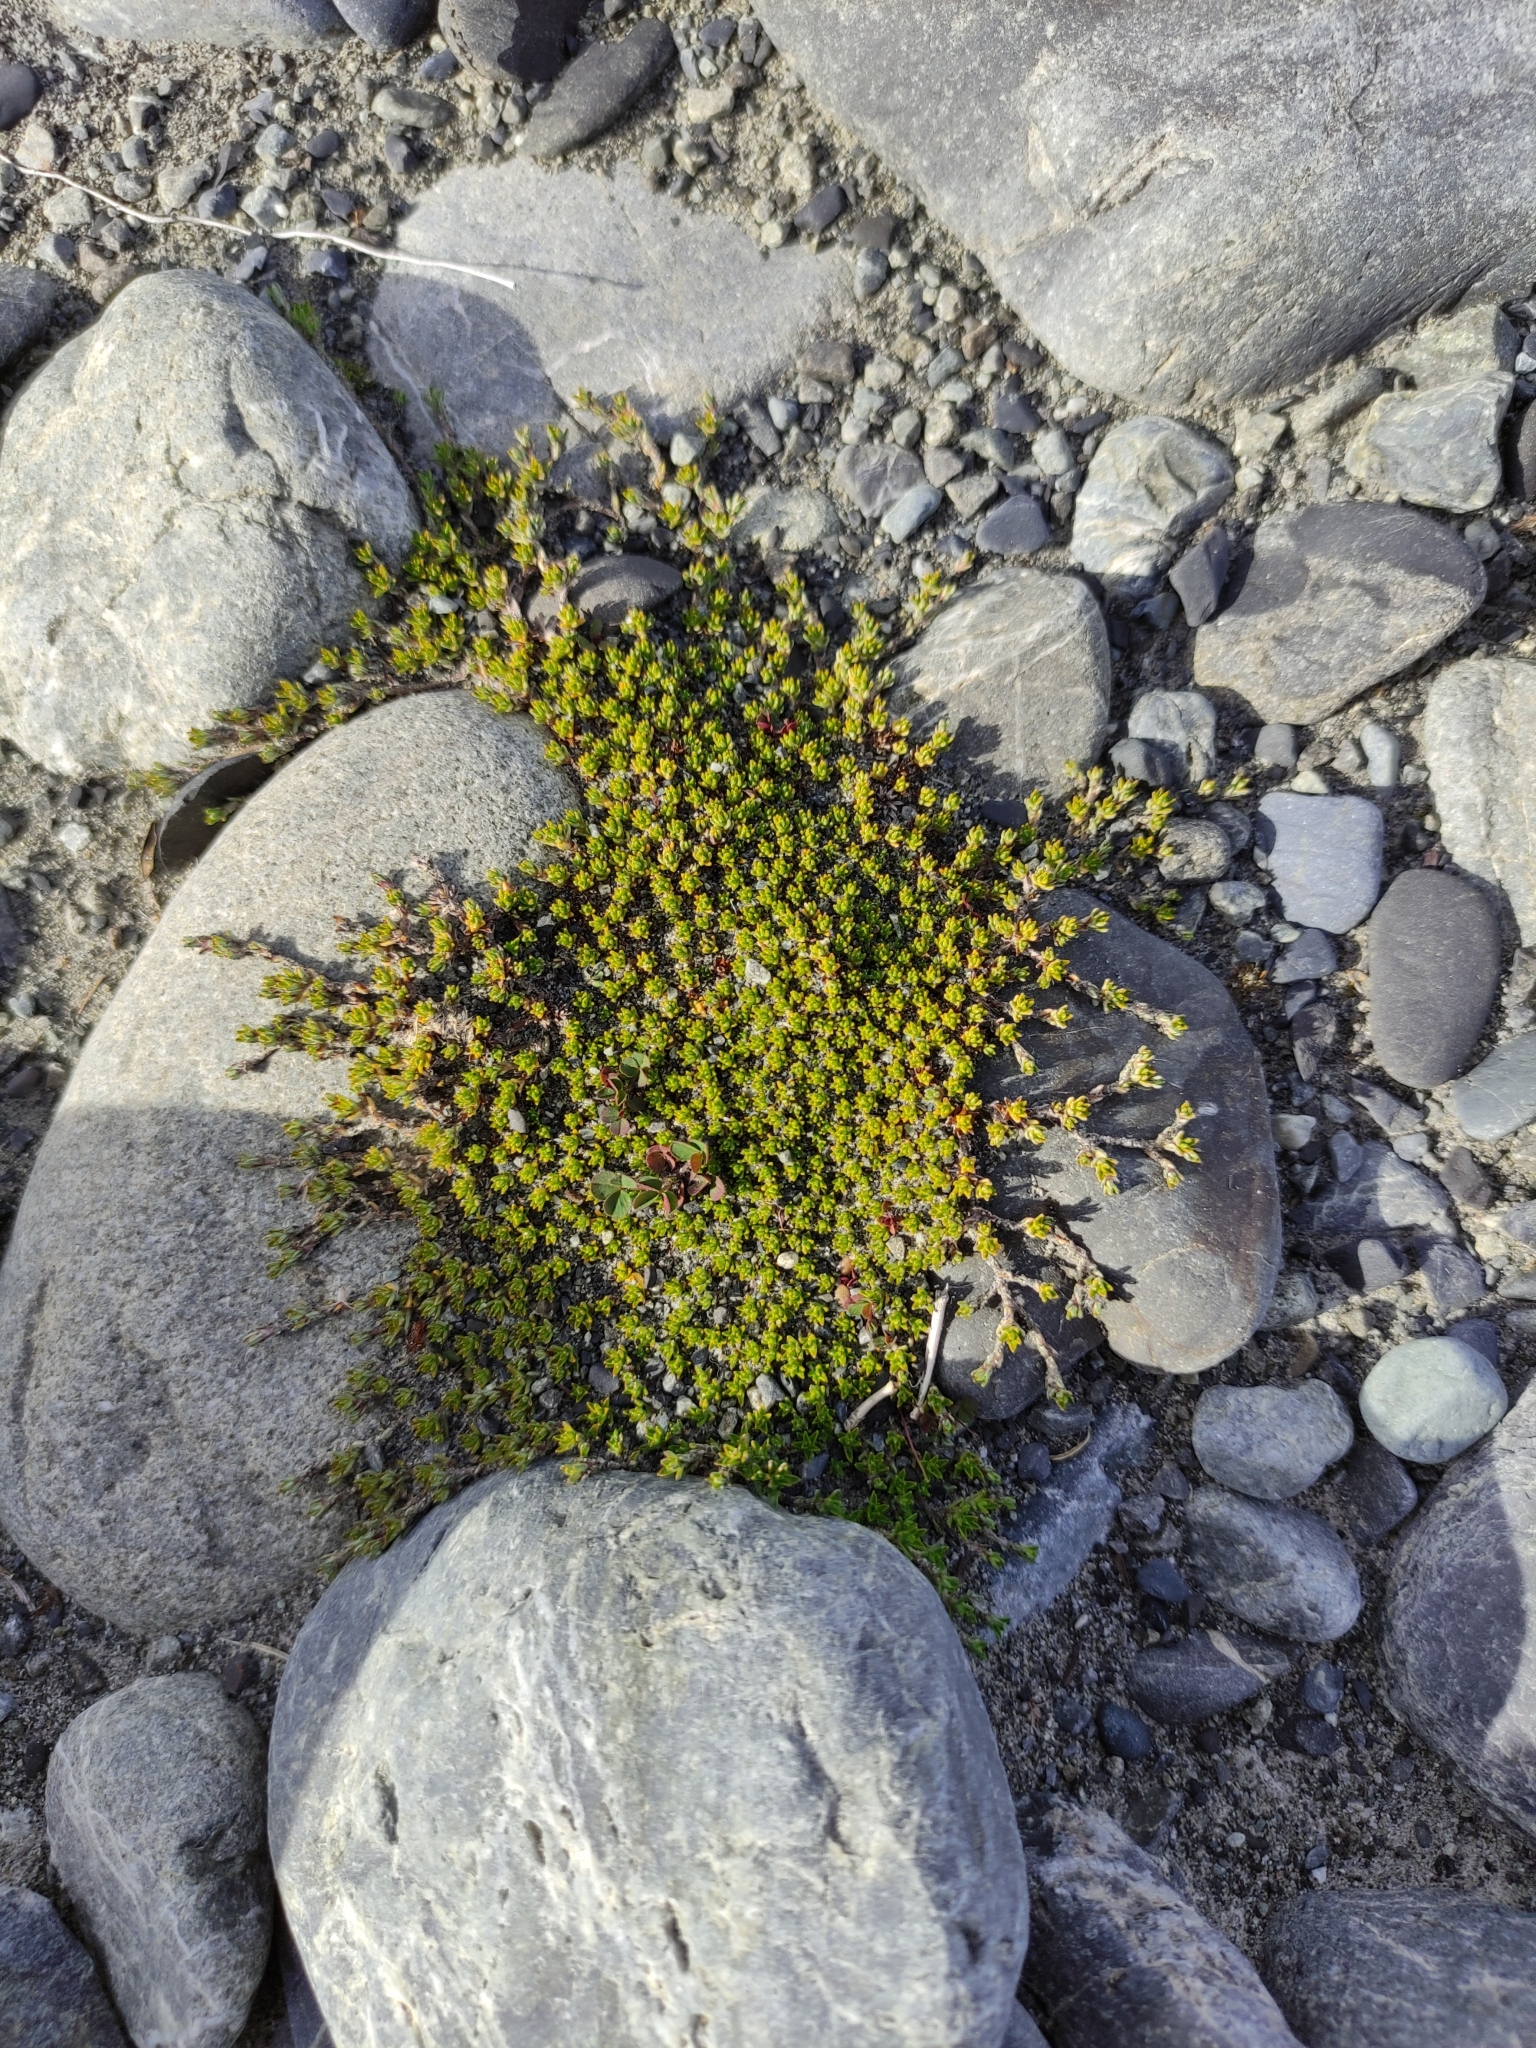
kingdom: Plantae
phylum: Tracheophyta
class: Magnoliopsida
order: Asterales
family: Asteraceae
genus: Raoulia
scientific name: Raoulia haastii
